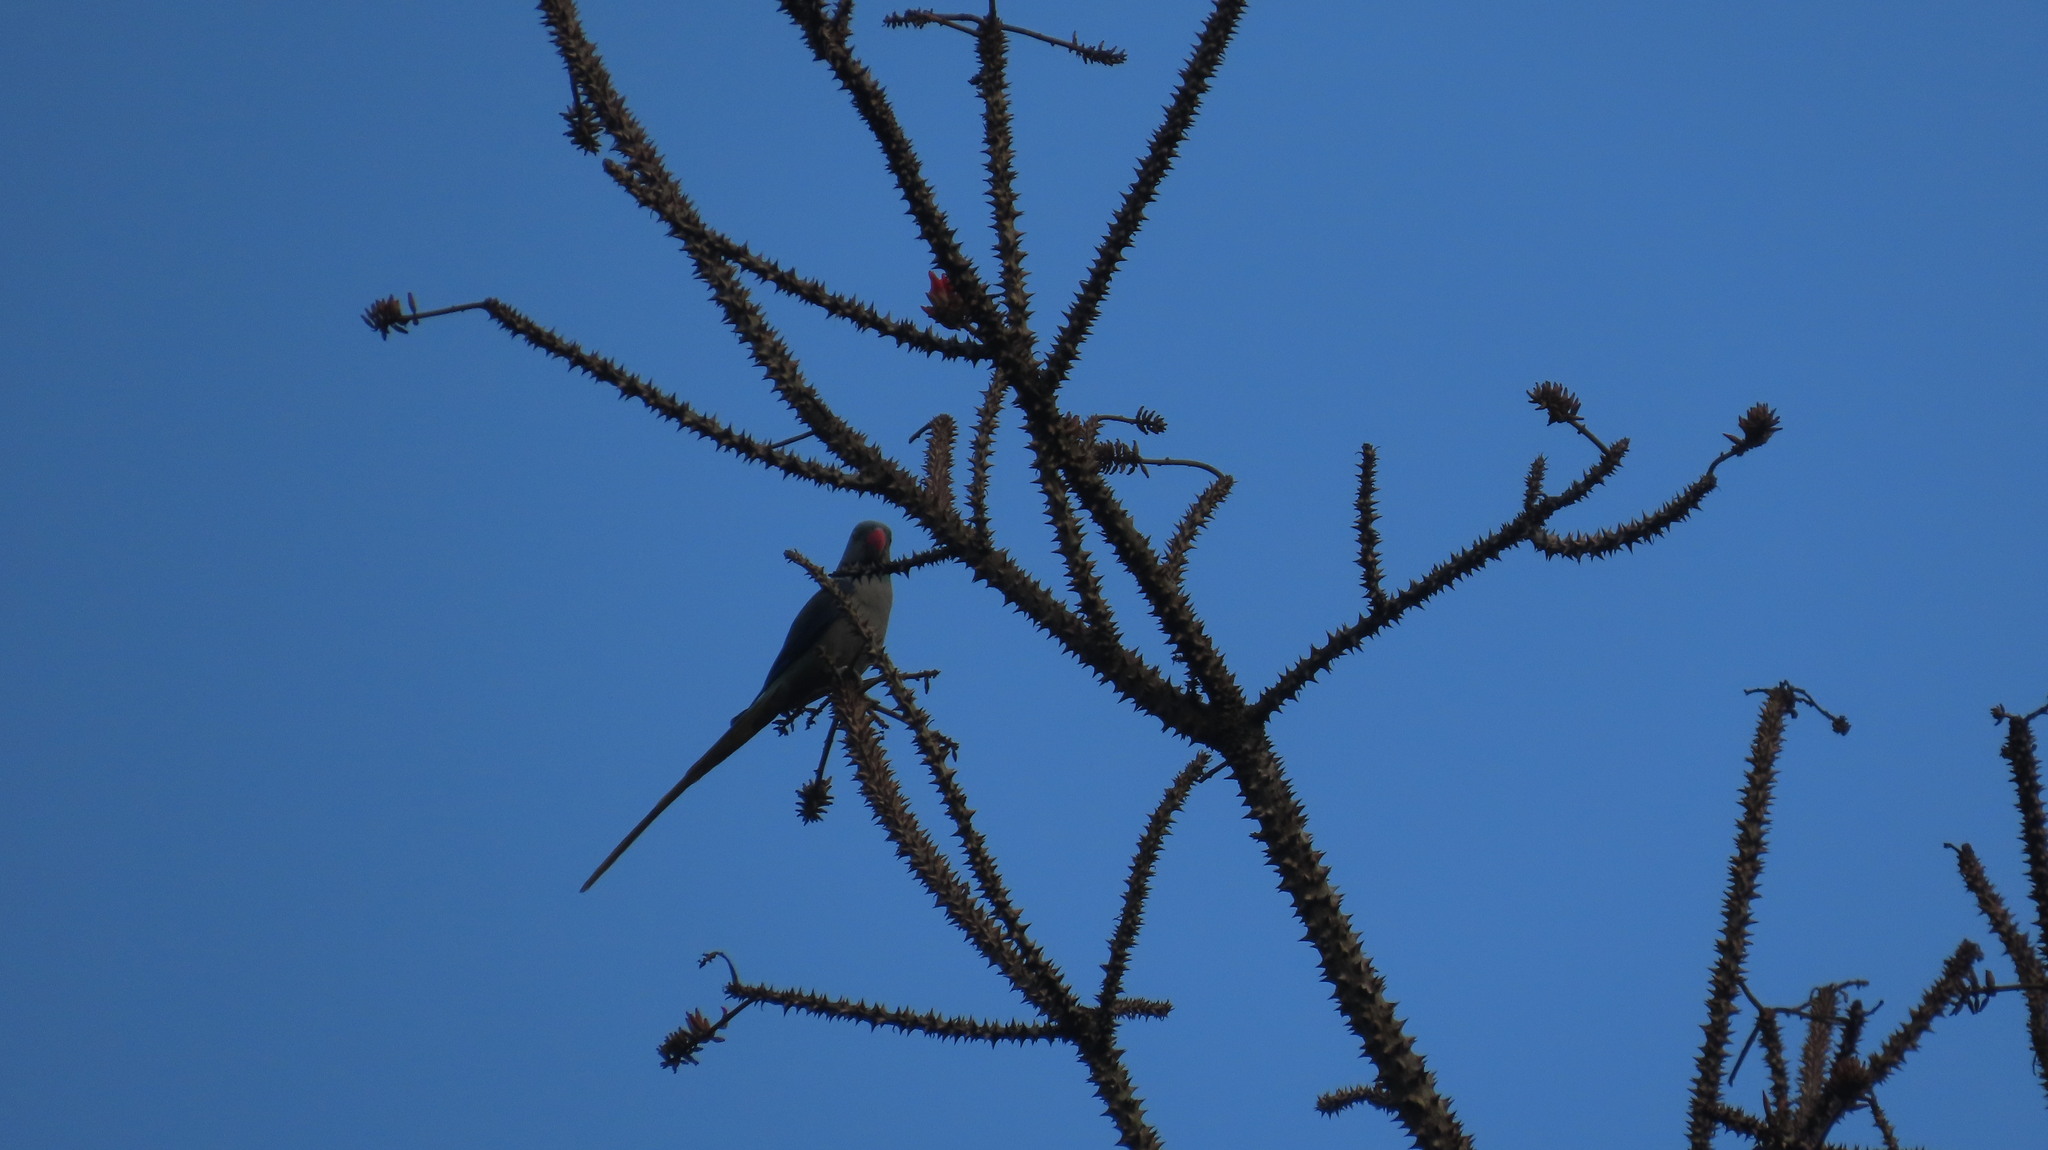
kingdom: Animalia
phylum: Chordata
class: Aves
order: Psittaciformes
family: Psittacidae
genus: Psittacula
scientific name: Psittacula columboides
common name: Blue-winged parakeet
